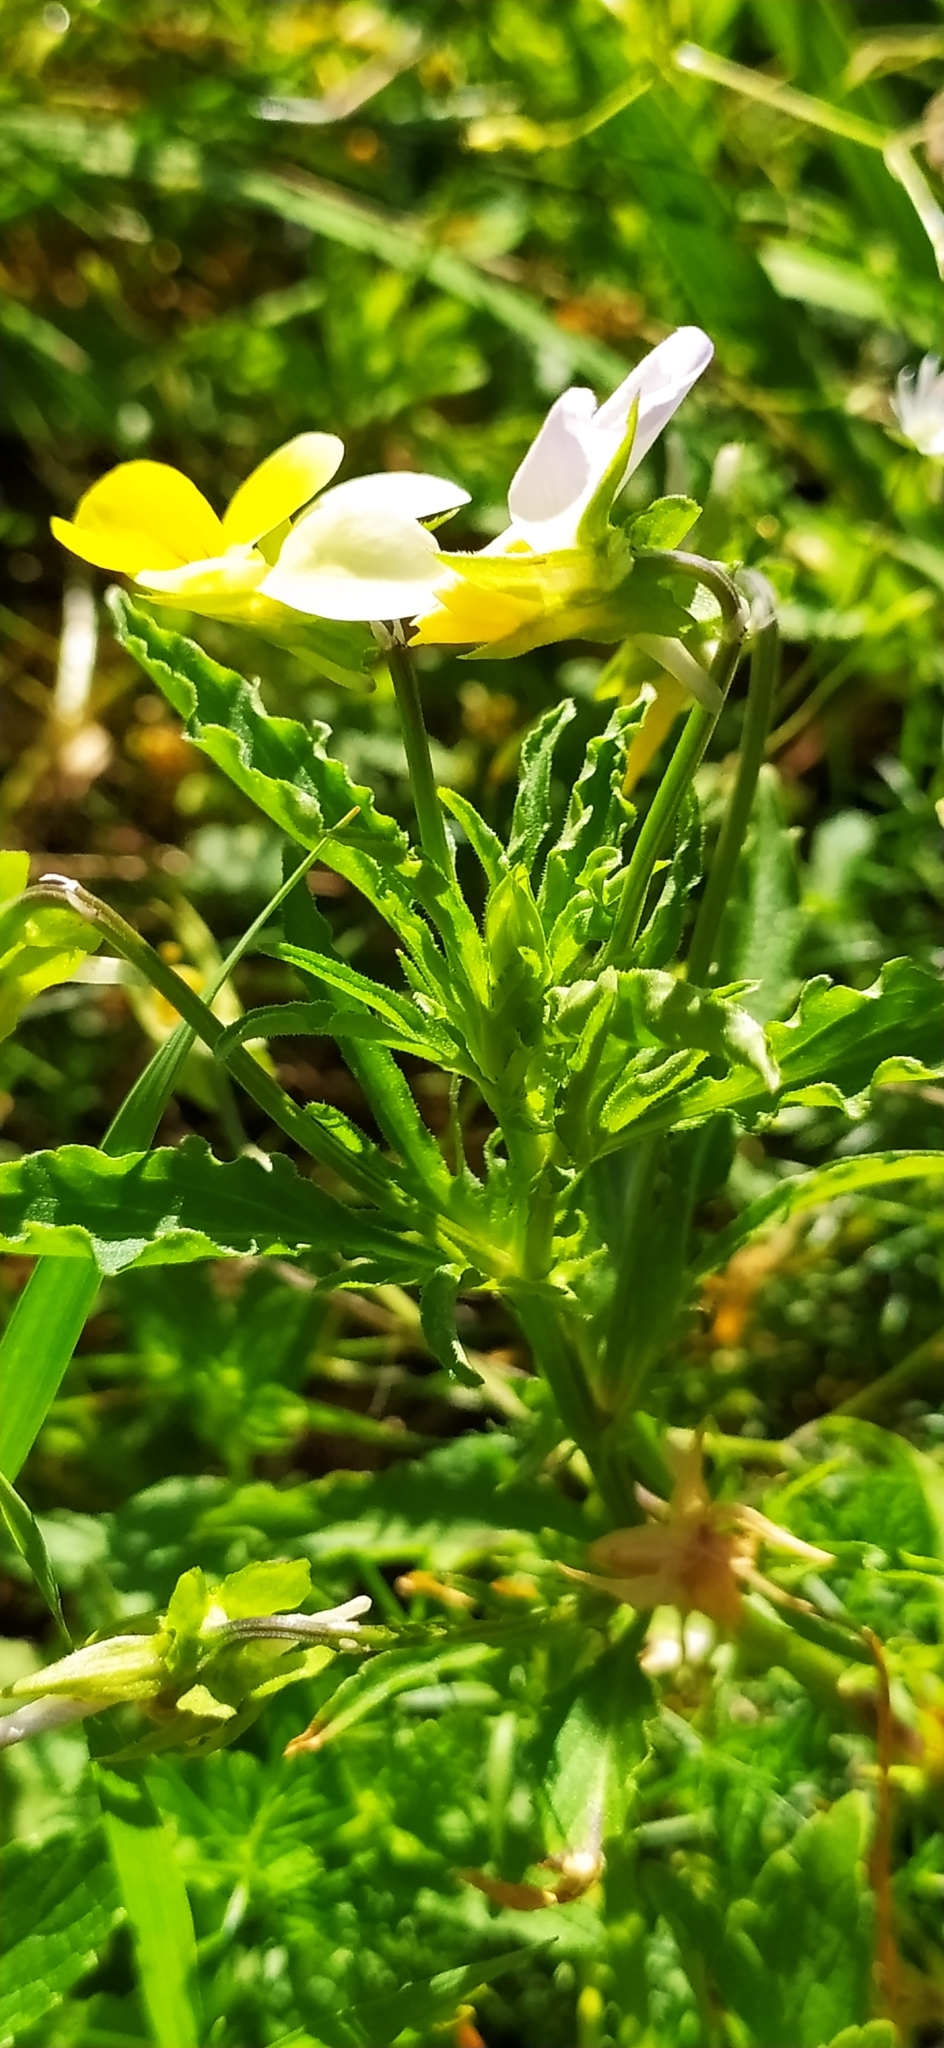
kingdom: Plantae
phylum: Tracheophyta
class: Magnoliopsida
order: Malpighiales
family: Violaceae
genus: Viola
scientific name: Viola tricolor
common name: Pansy
